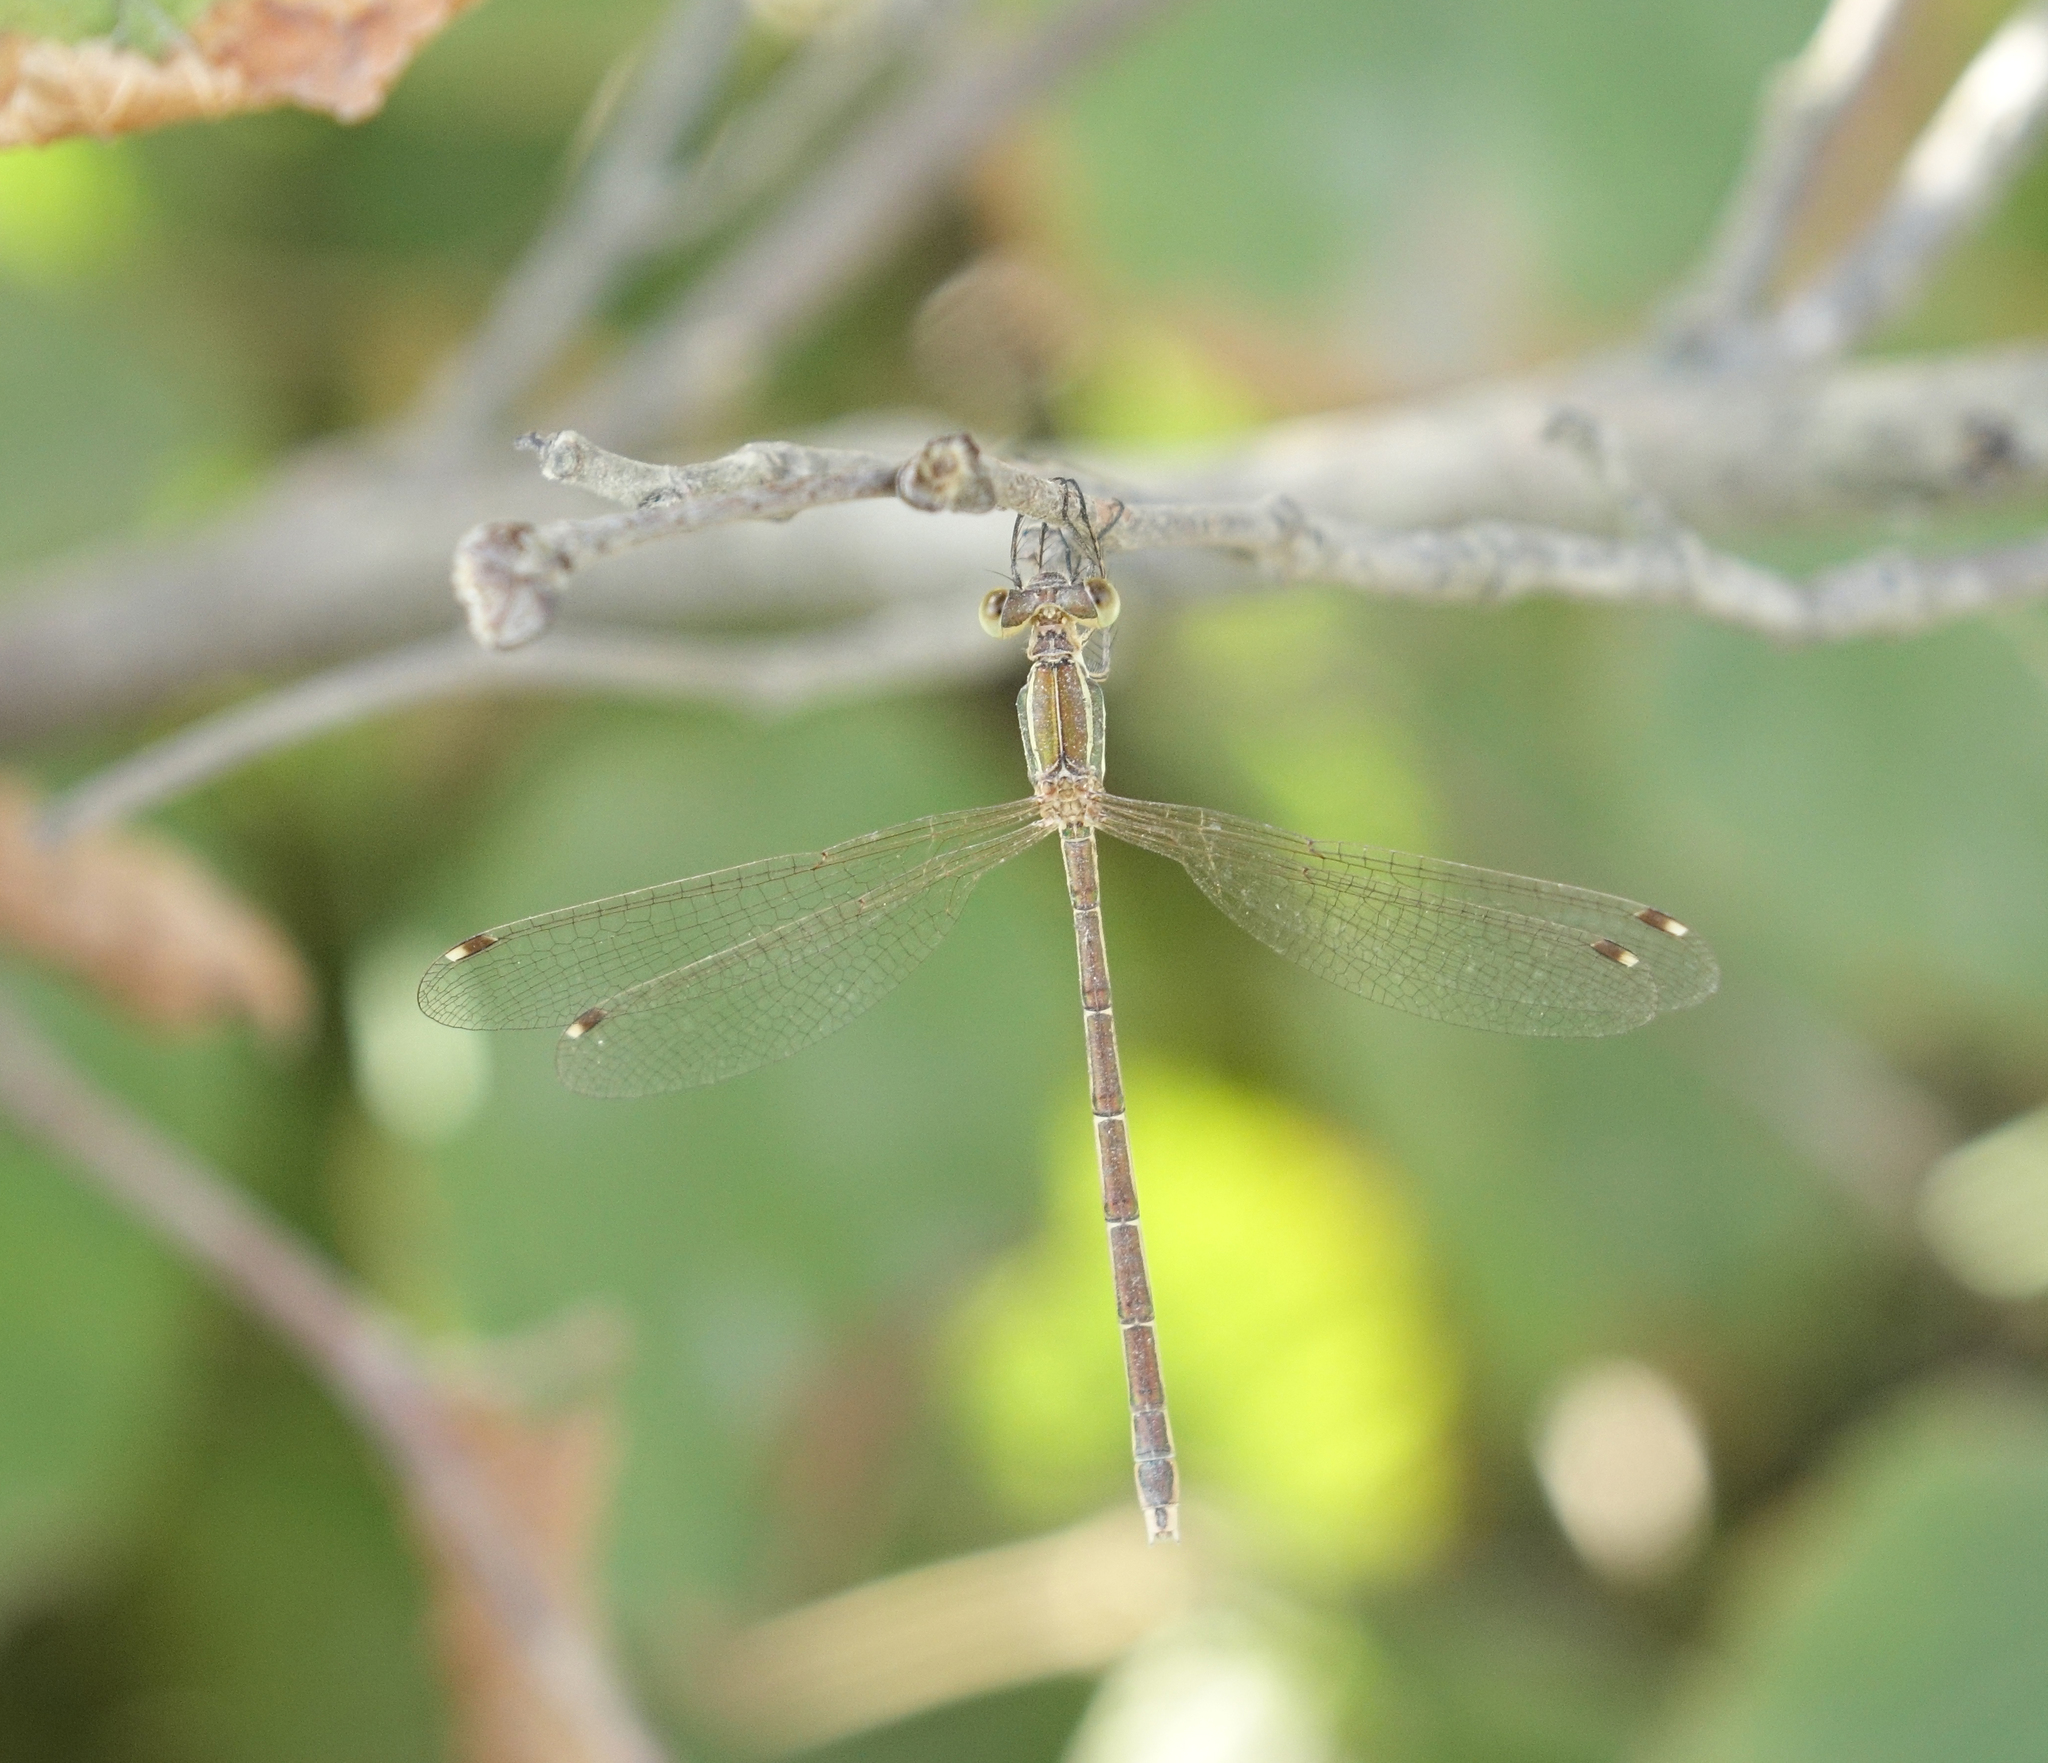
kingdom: Animalia
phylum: Arthropoda
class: Insecta
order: Odonata
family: Lestidae
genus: Lestes
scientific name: Lestes barbarus
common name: Migrant spreadwing
